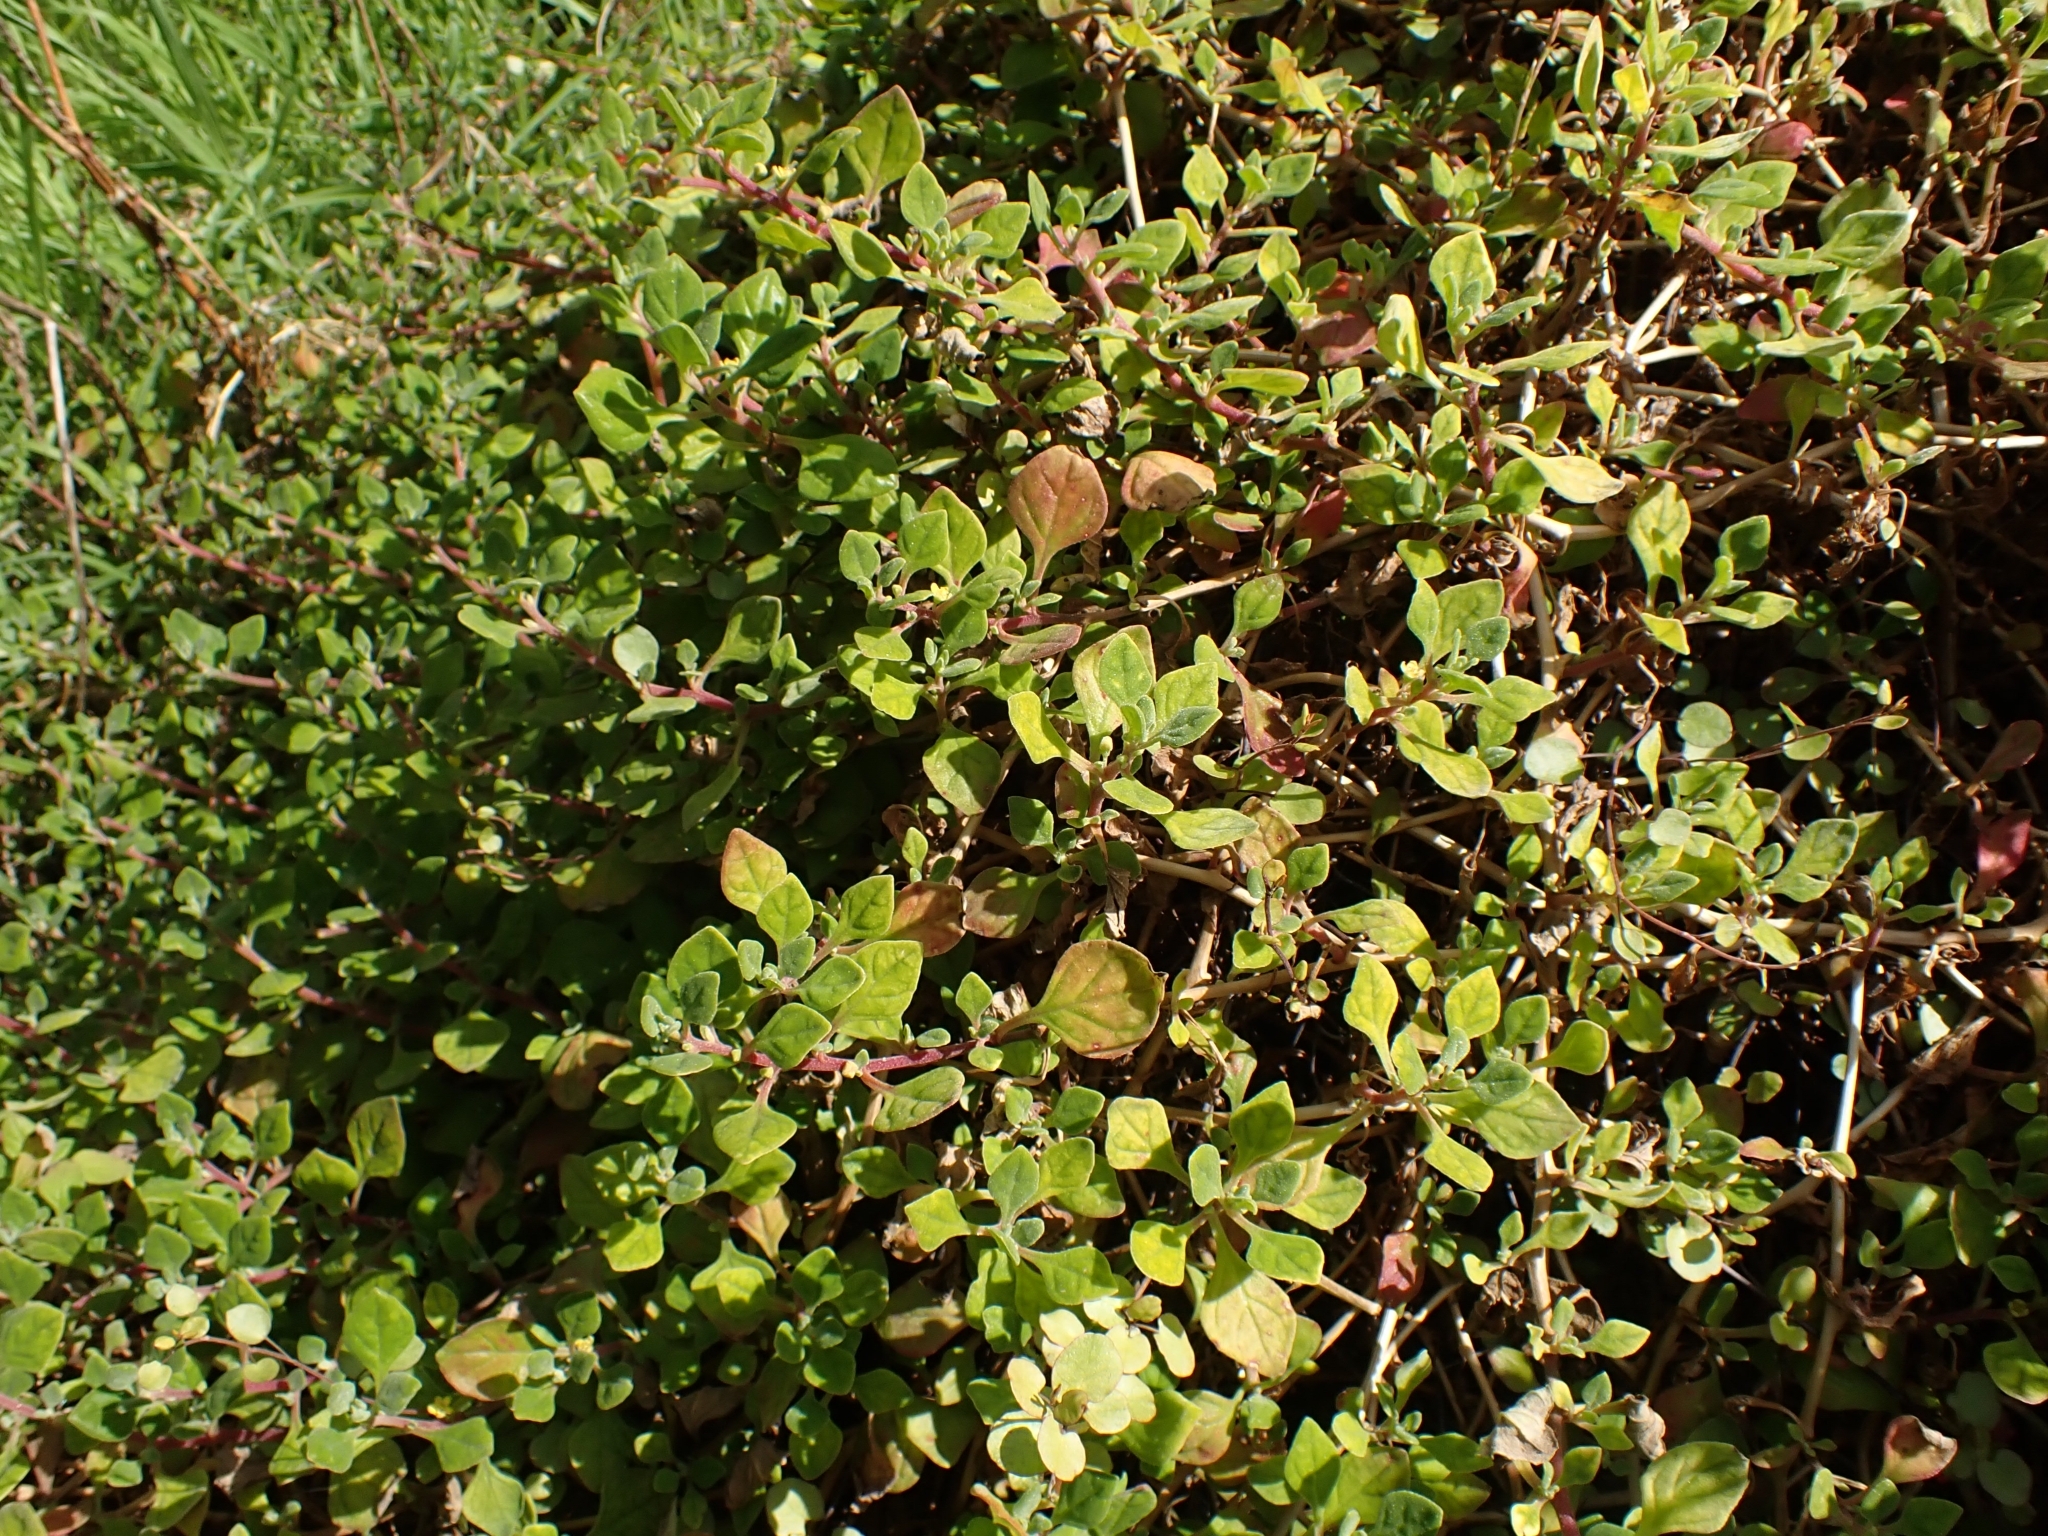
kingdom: Plantae
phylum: Tracheophyta
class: Magnoliopsida
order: Caryophyllales
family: Aizoaceae
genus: Tetragonia
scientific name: Tetragonia implexicoma
